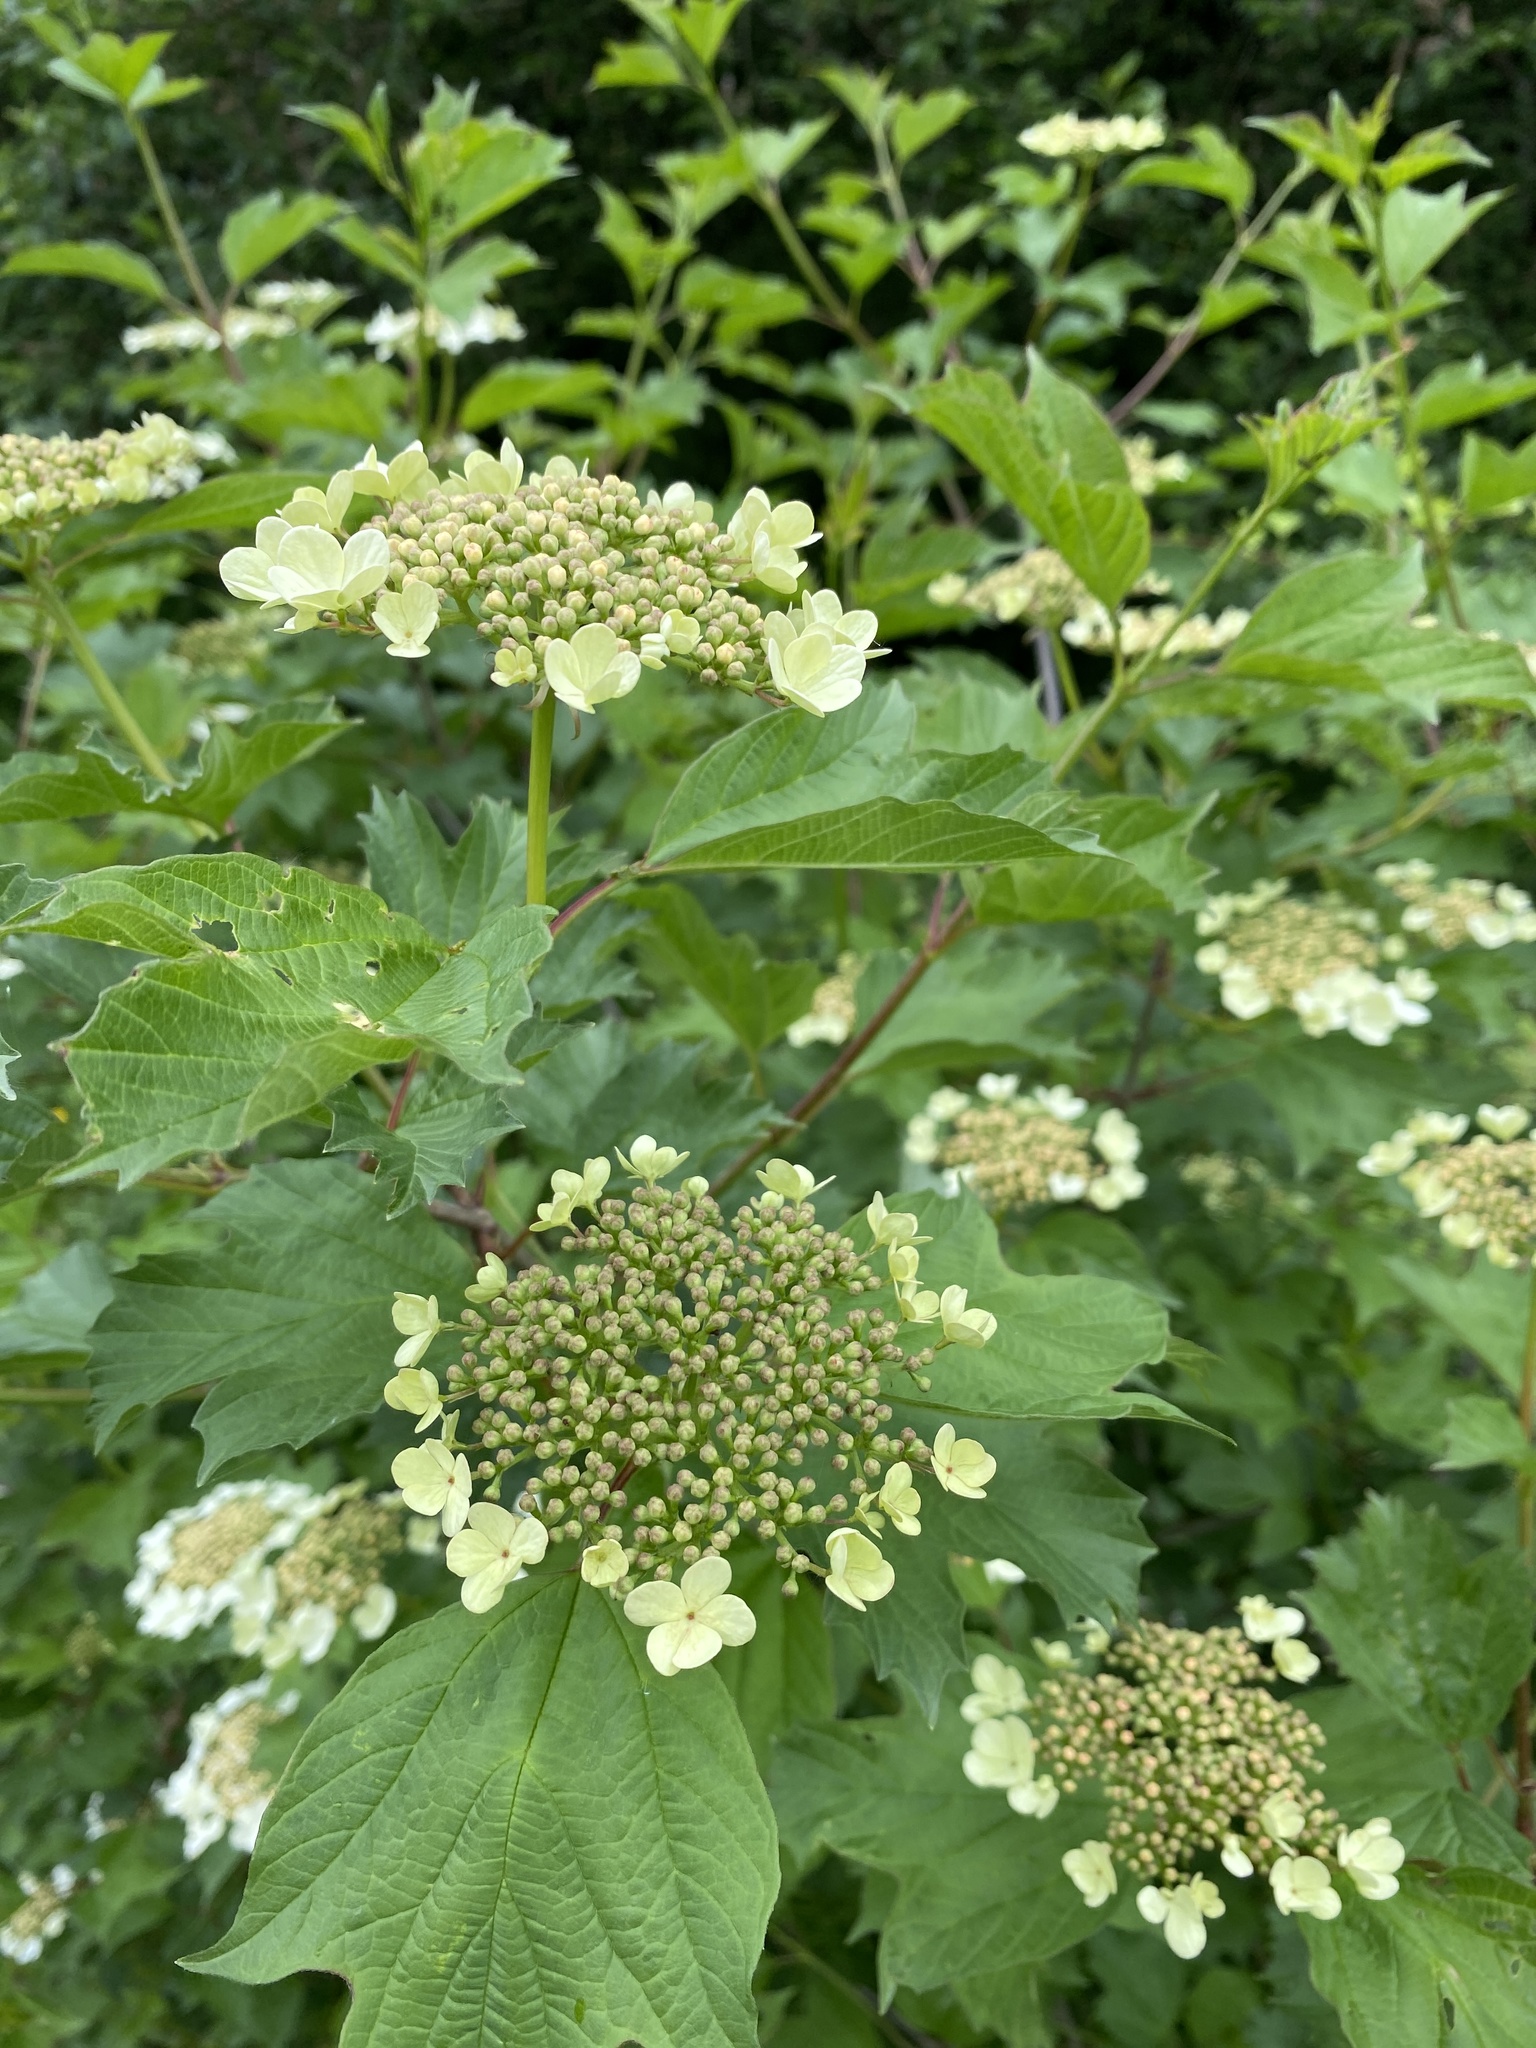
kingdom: Plantae
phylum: Tracheophyta
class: Magnoliopsida
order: Dipsacales
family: Viburnaceae
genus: Viburnum
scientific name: Viburnum opulus
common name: Guelder-rose
